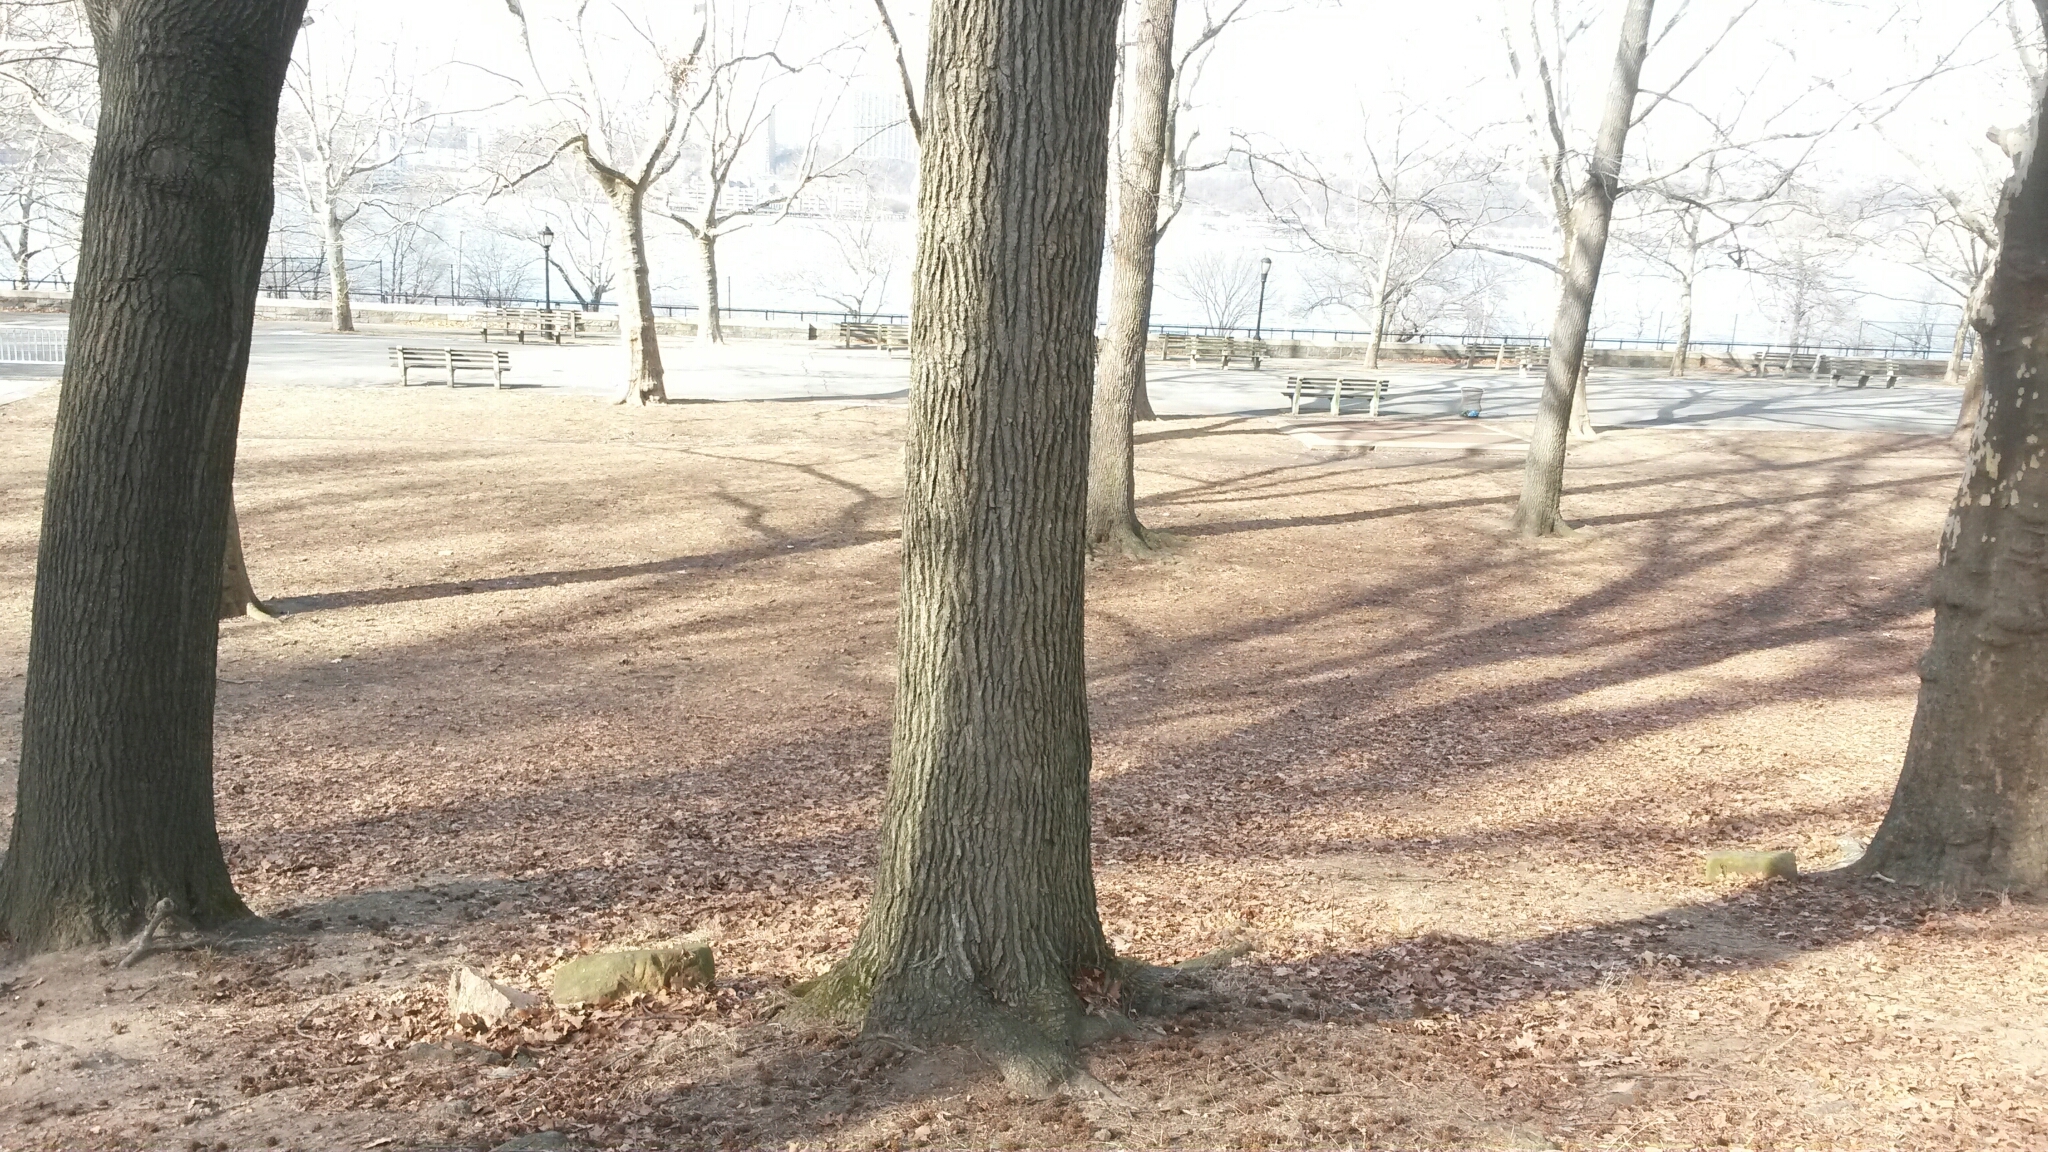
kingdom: Plantae
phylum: Tracheophyta
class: Magnoliopsida
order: Saxifragales
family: Altingiaceae
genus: Liquidambar
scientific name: Liquidambar styraciflua
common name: Sweet gum
